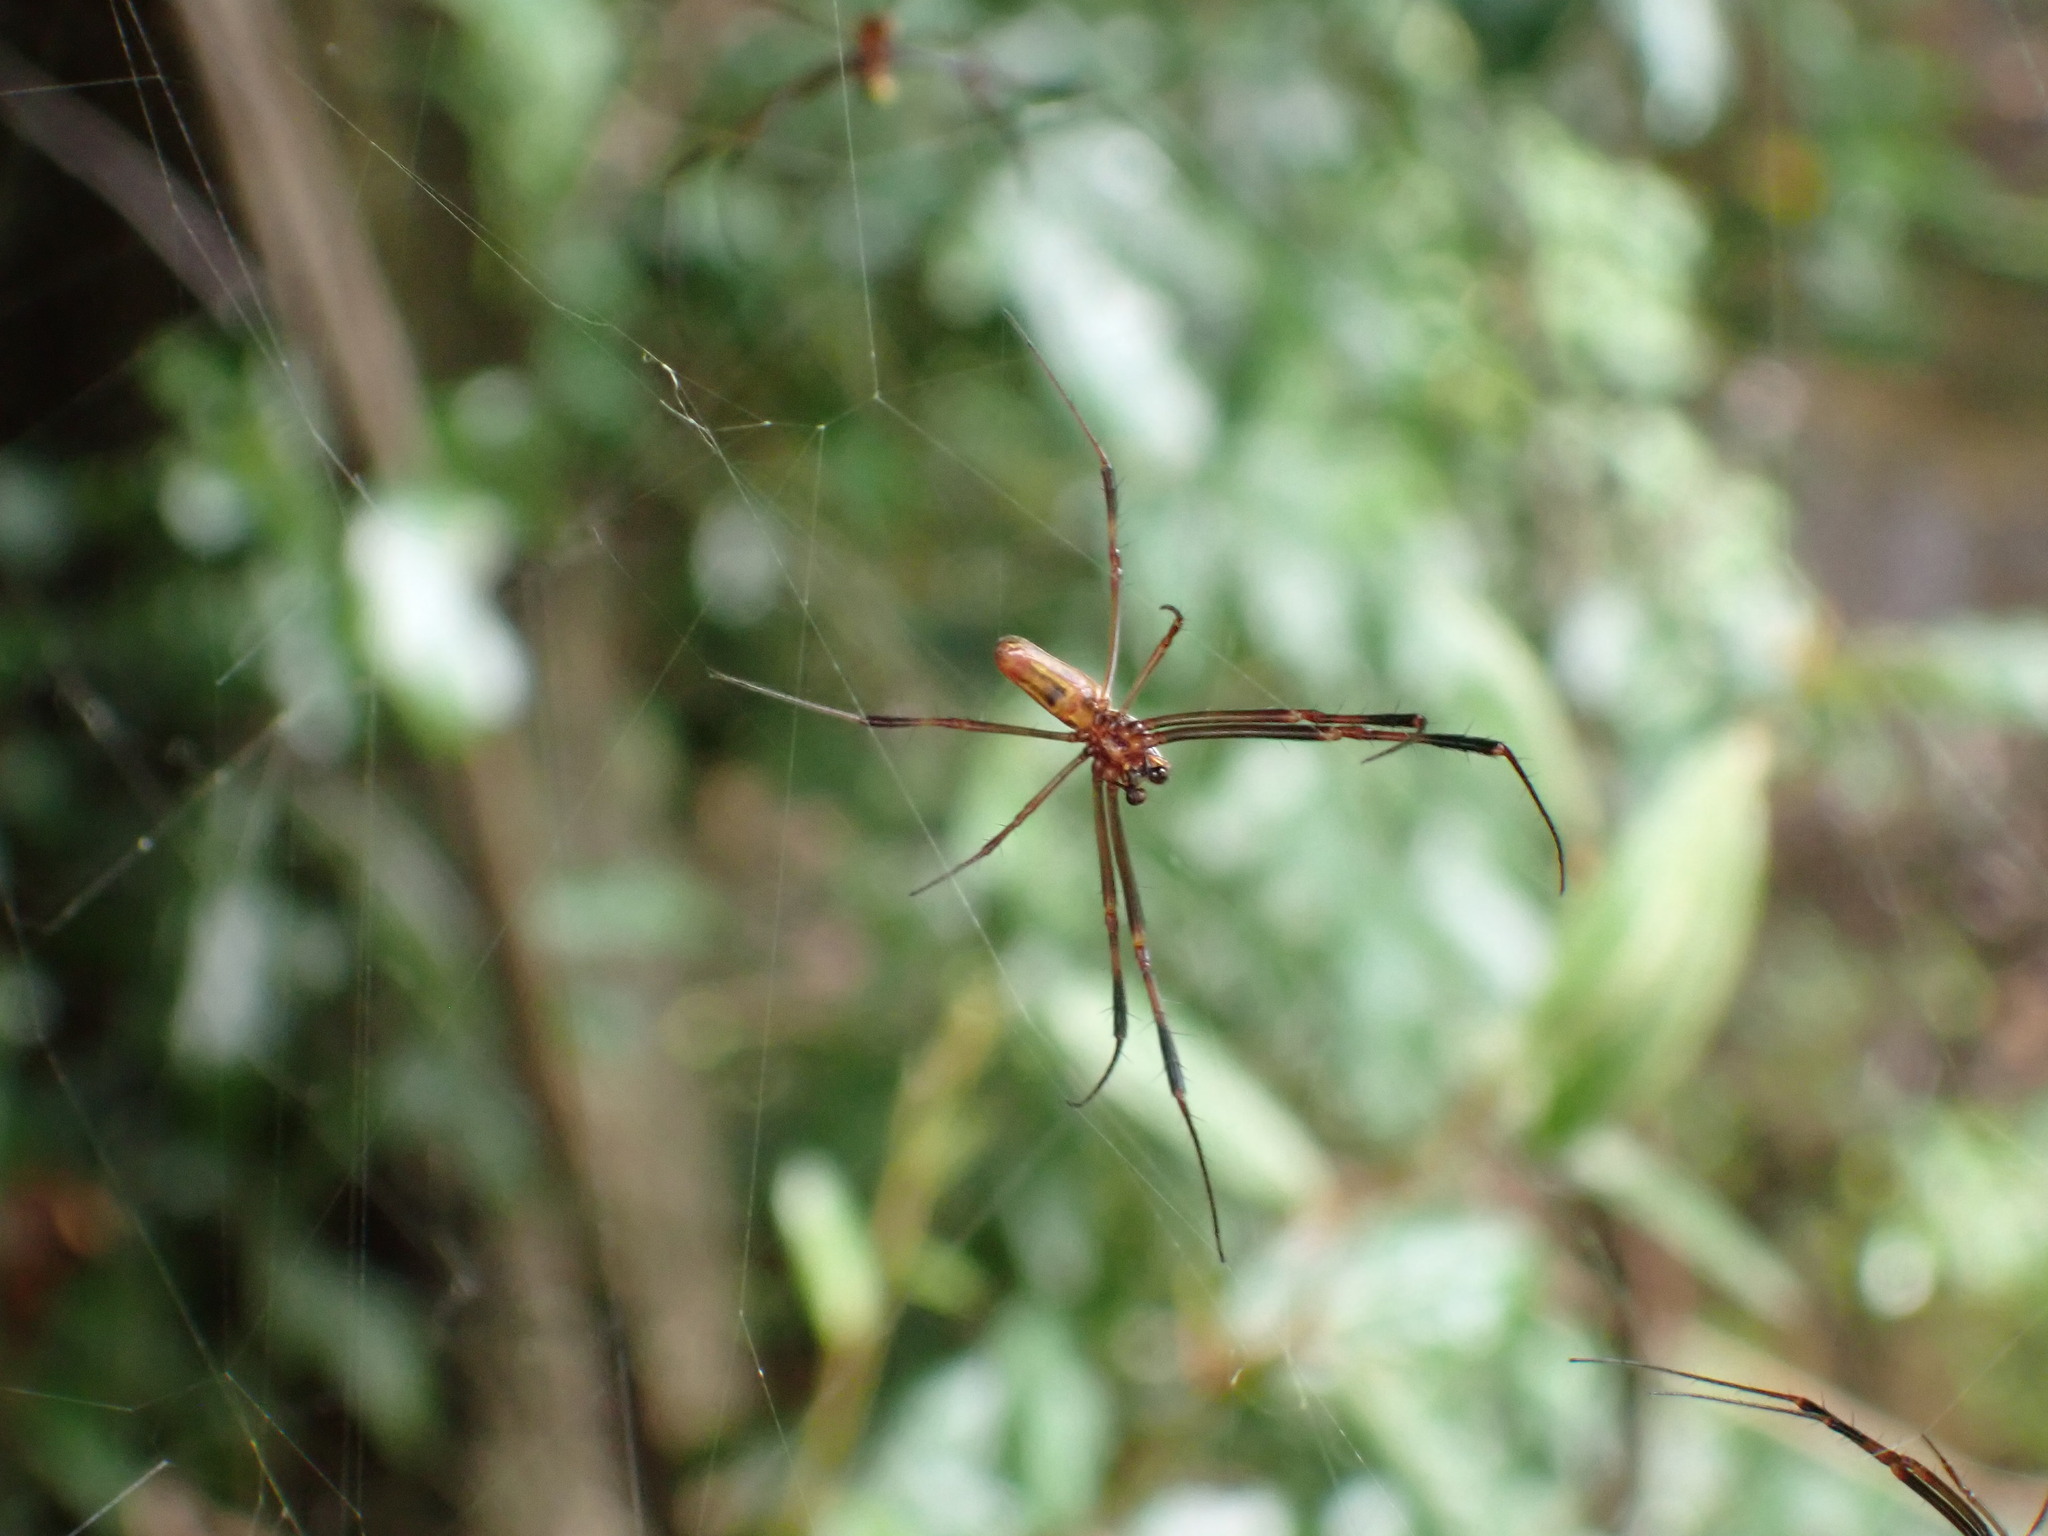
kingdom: Animalia
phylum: Arthropoda
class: Arachnida
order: Araneae
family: Araneidae
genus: Trichonephila
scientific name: Trichonephila clavipes
